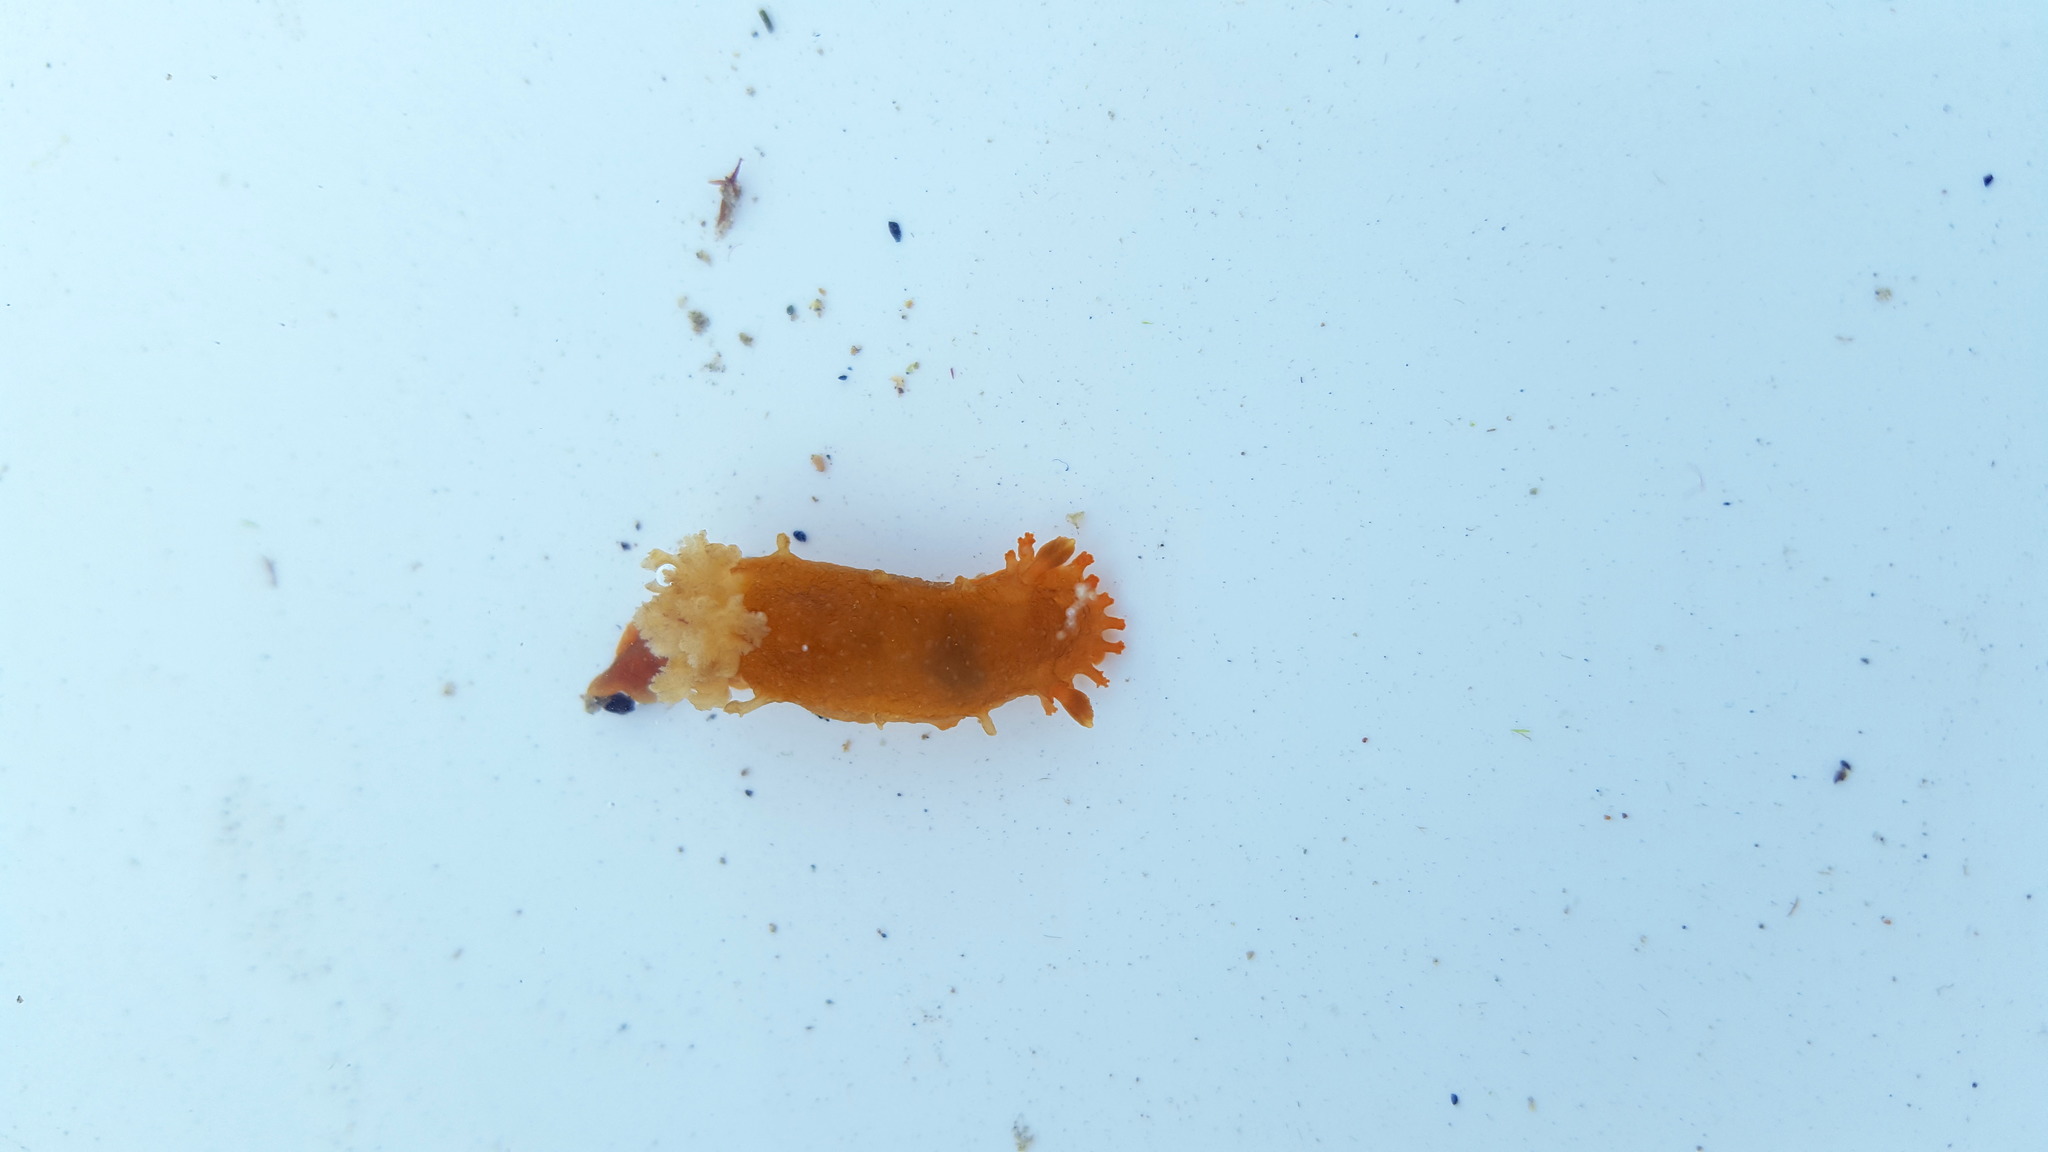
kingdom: Animalia
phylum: Mollusca
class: Gastropoda
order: Nudibranchia
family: Polyceridae
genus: Triopha
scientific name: Triopha maculata
